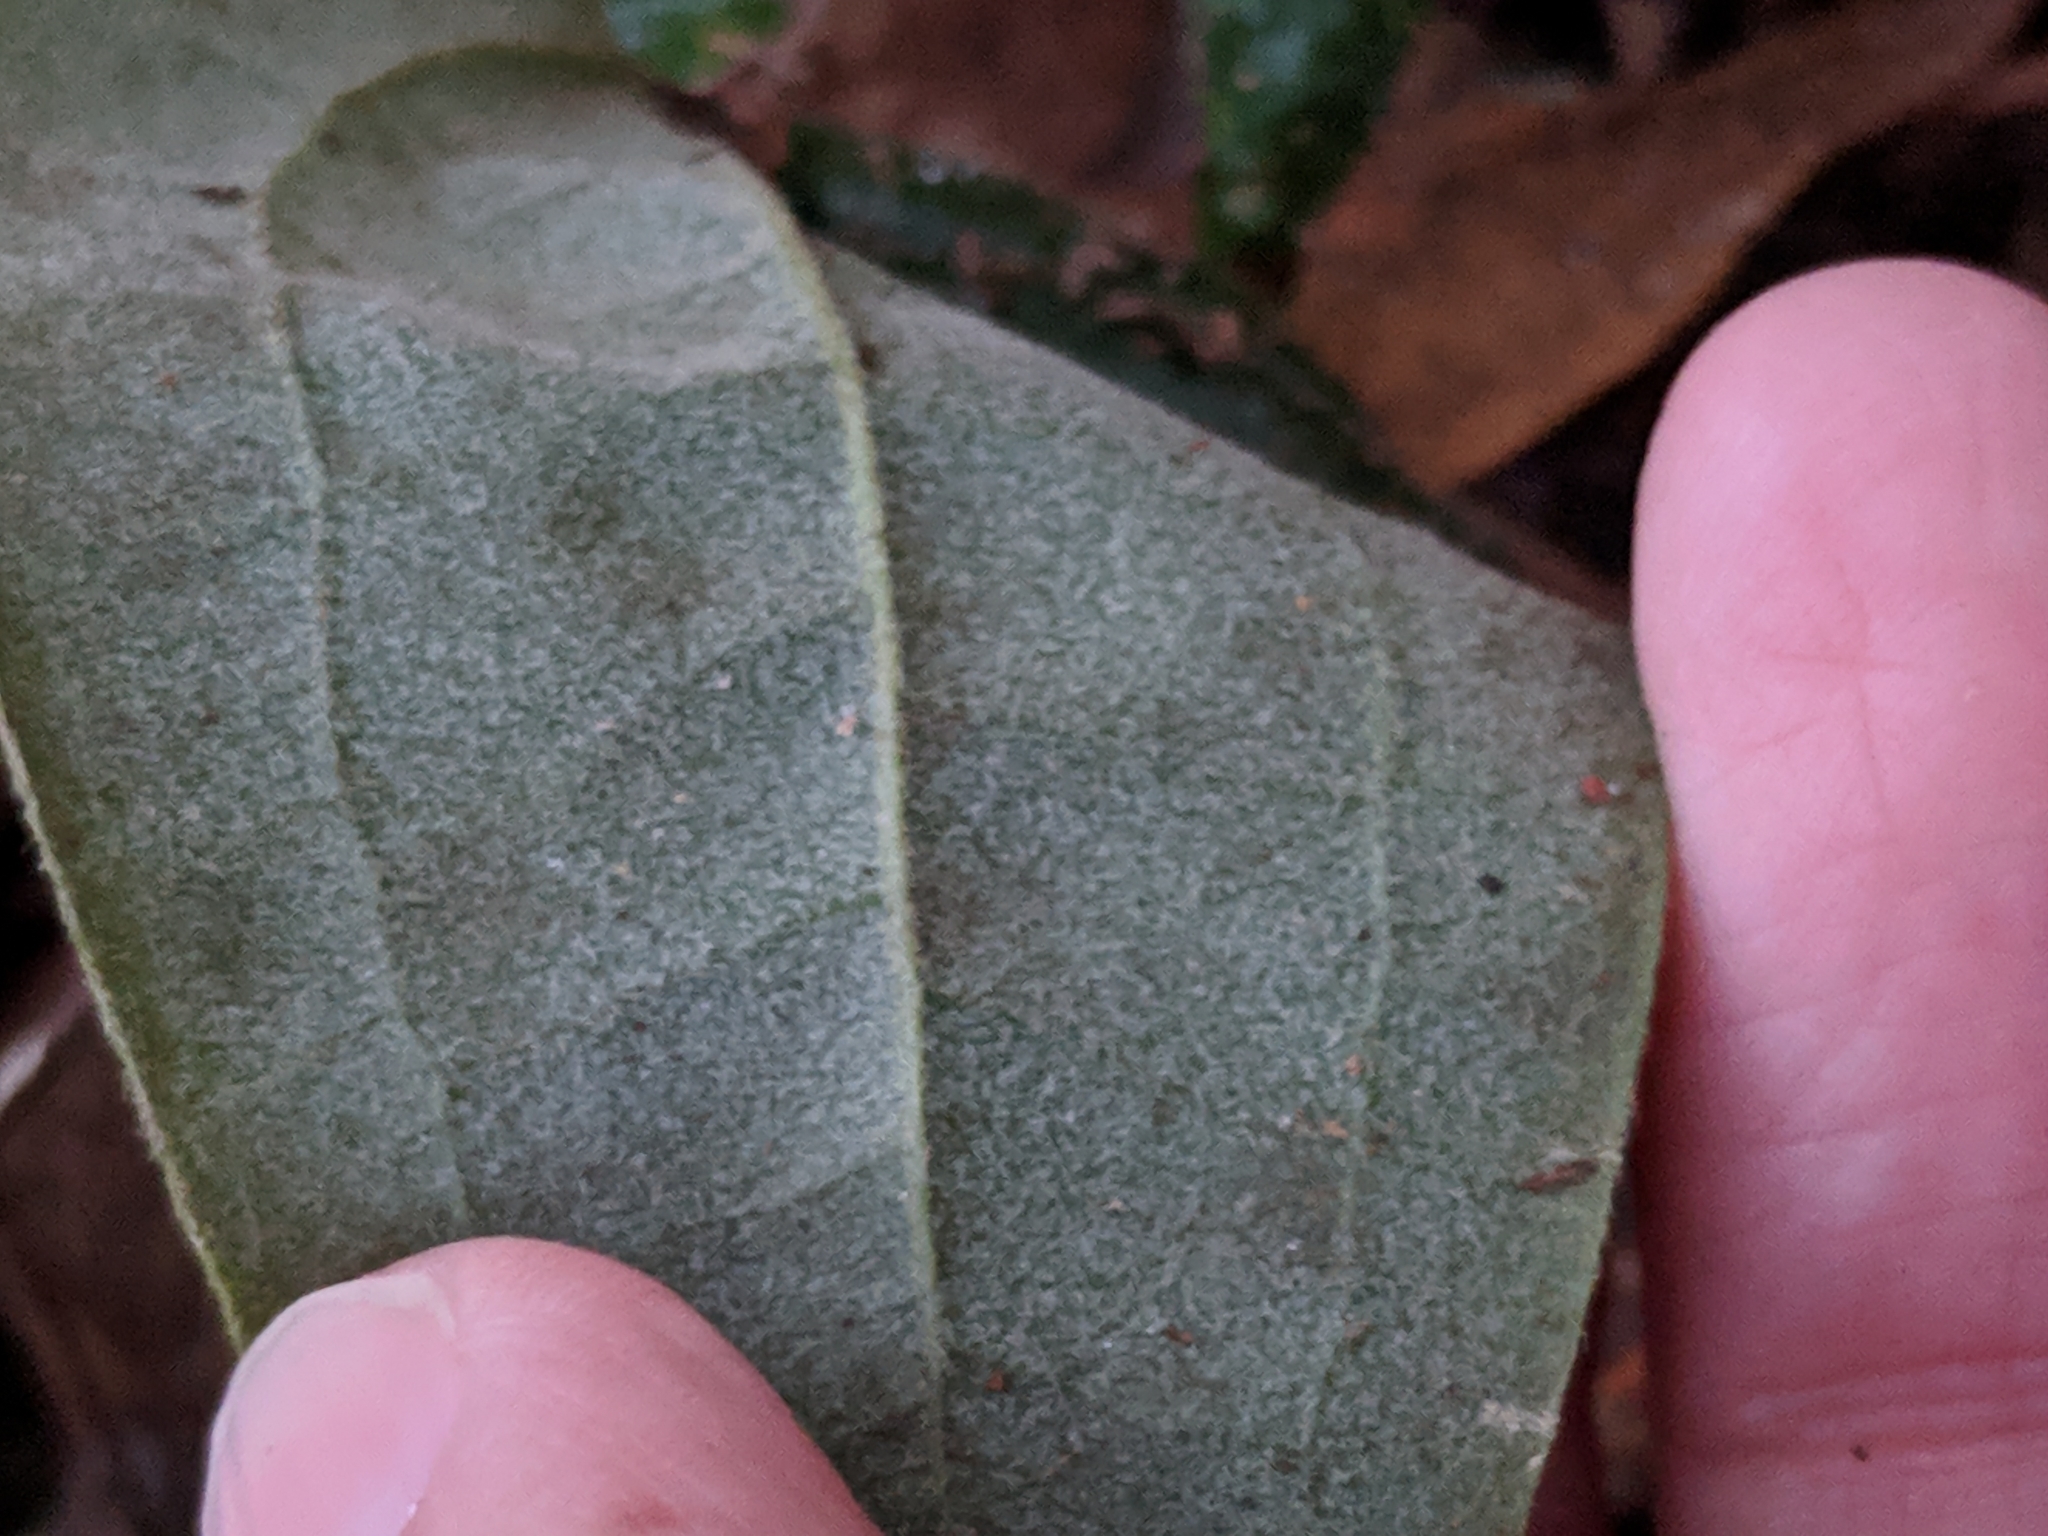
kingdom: Plantae
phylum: Tracheophyta
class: Liliopsida
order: Liliales
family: Smilacaceae
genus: Smilax
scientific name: Smilax pumila
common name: Sarsaparilla-vine
